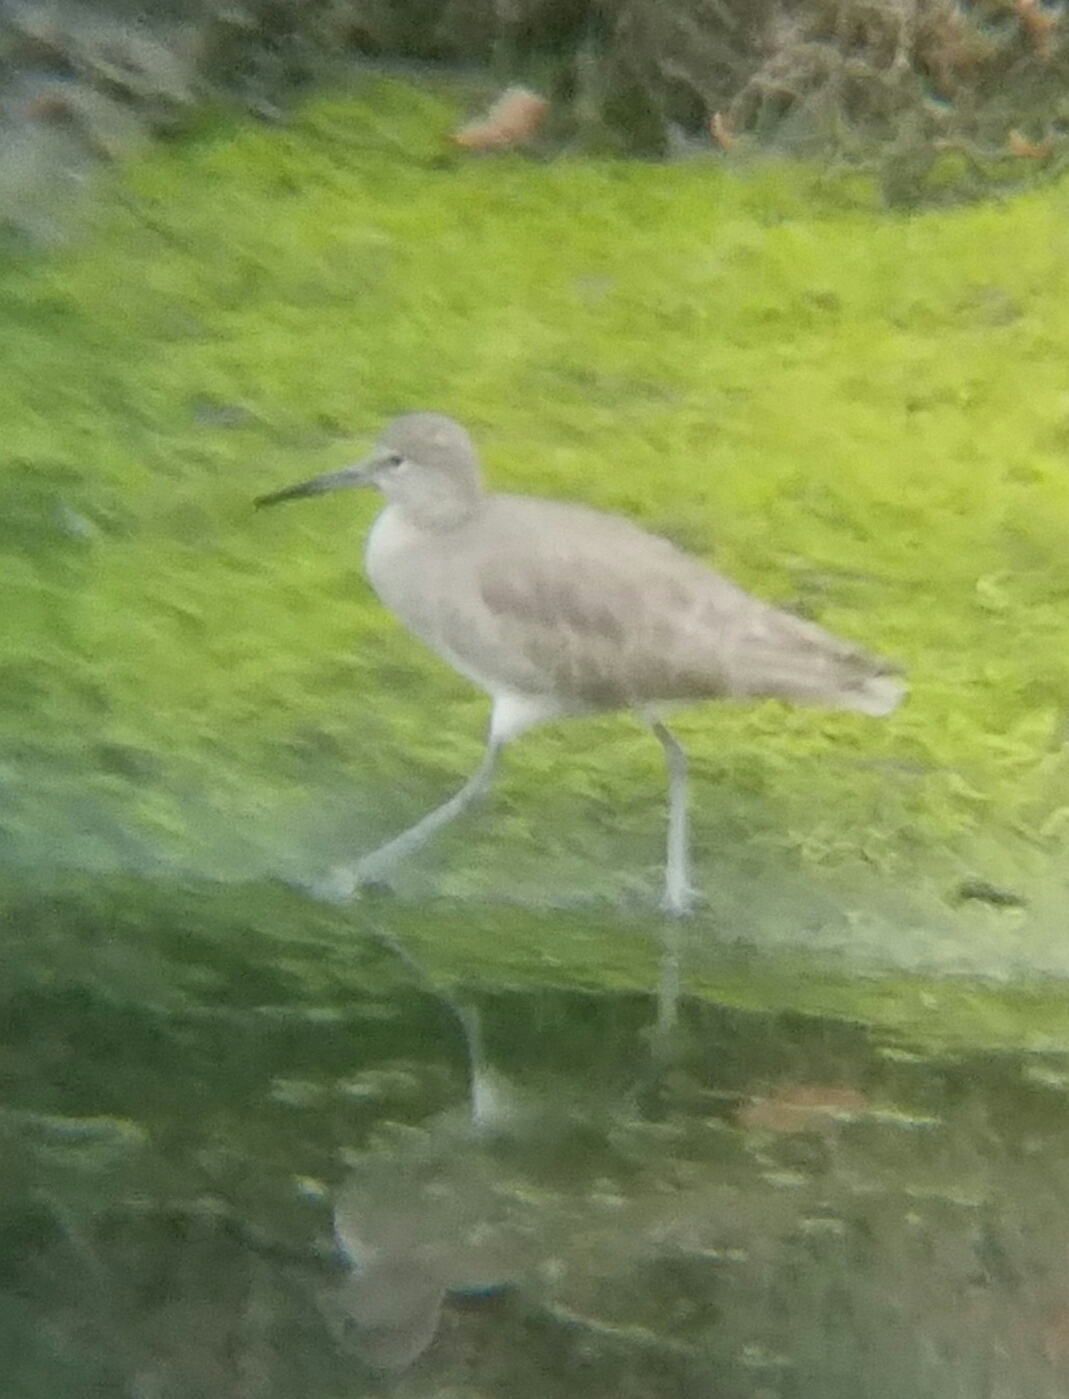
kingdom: Animalia
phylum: Chordata
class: Aves
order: Charadriiformes
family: Scolopacidae
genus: Tringa
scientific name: Tringa semipalmata
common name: Willet
